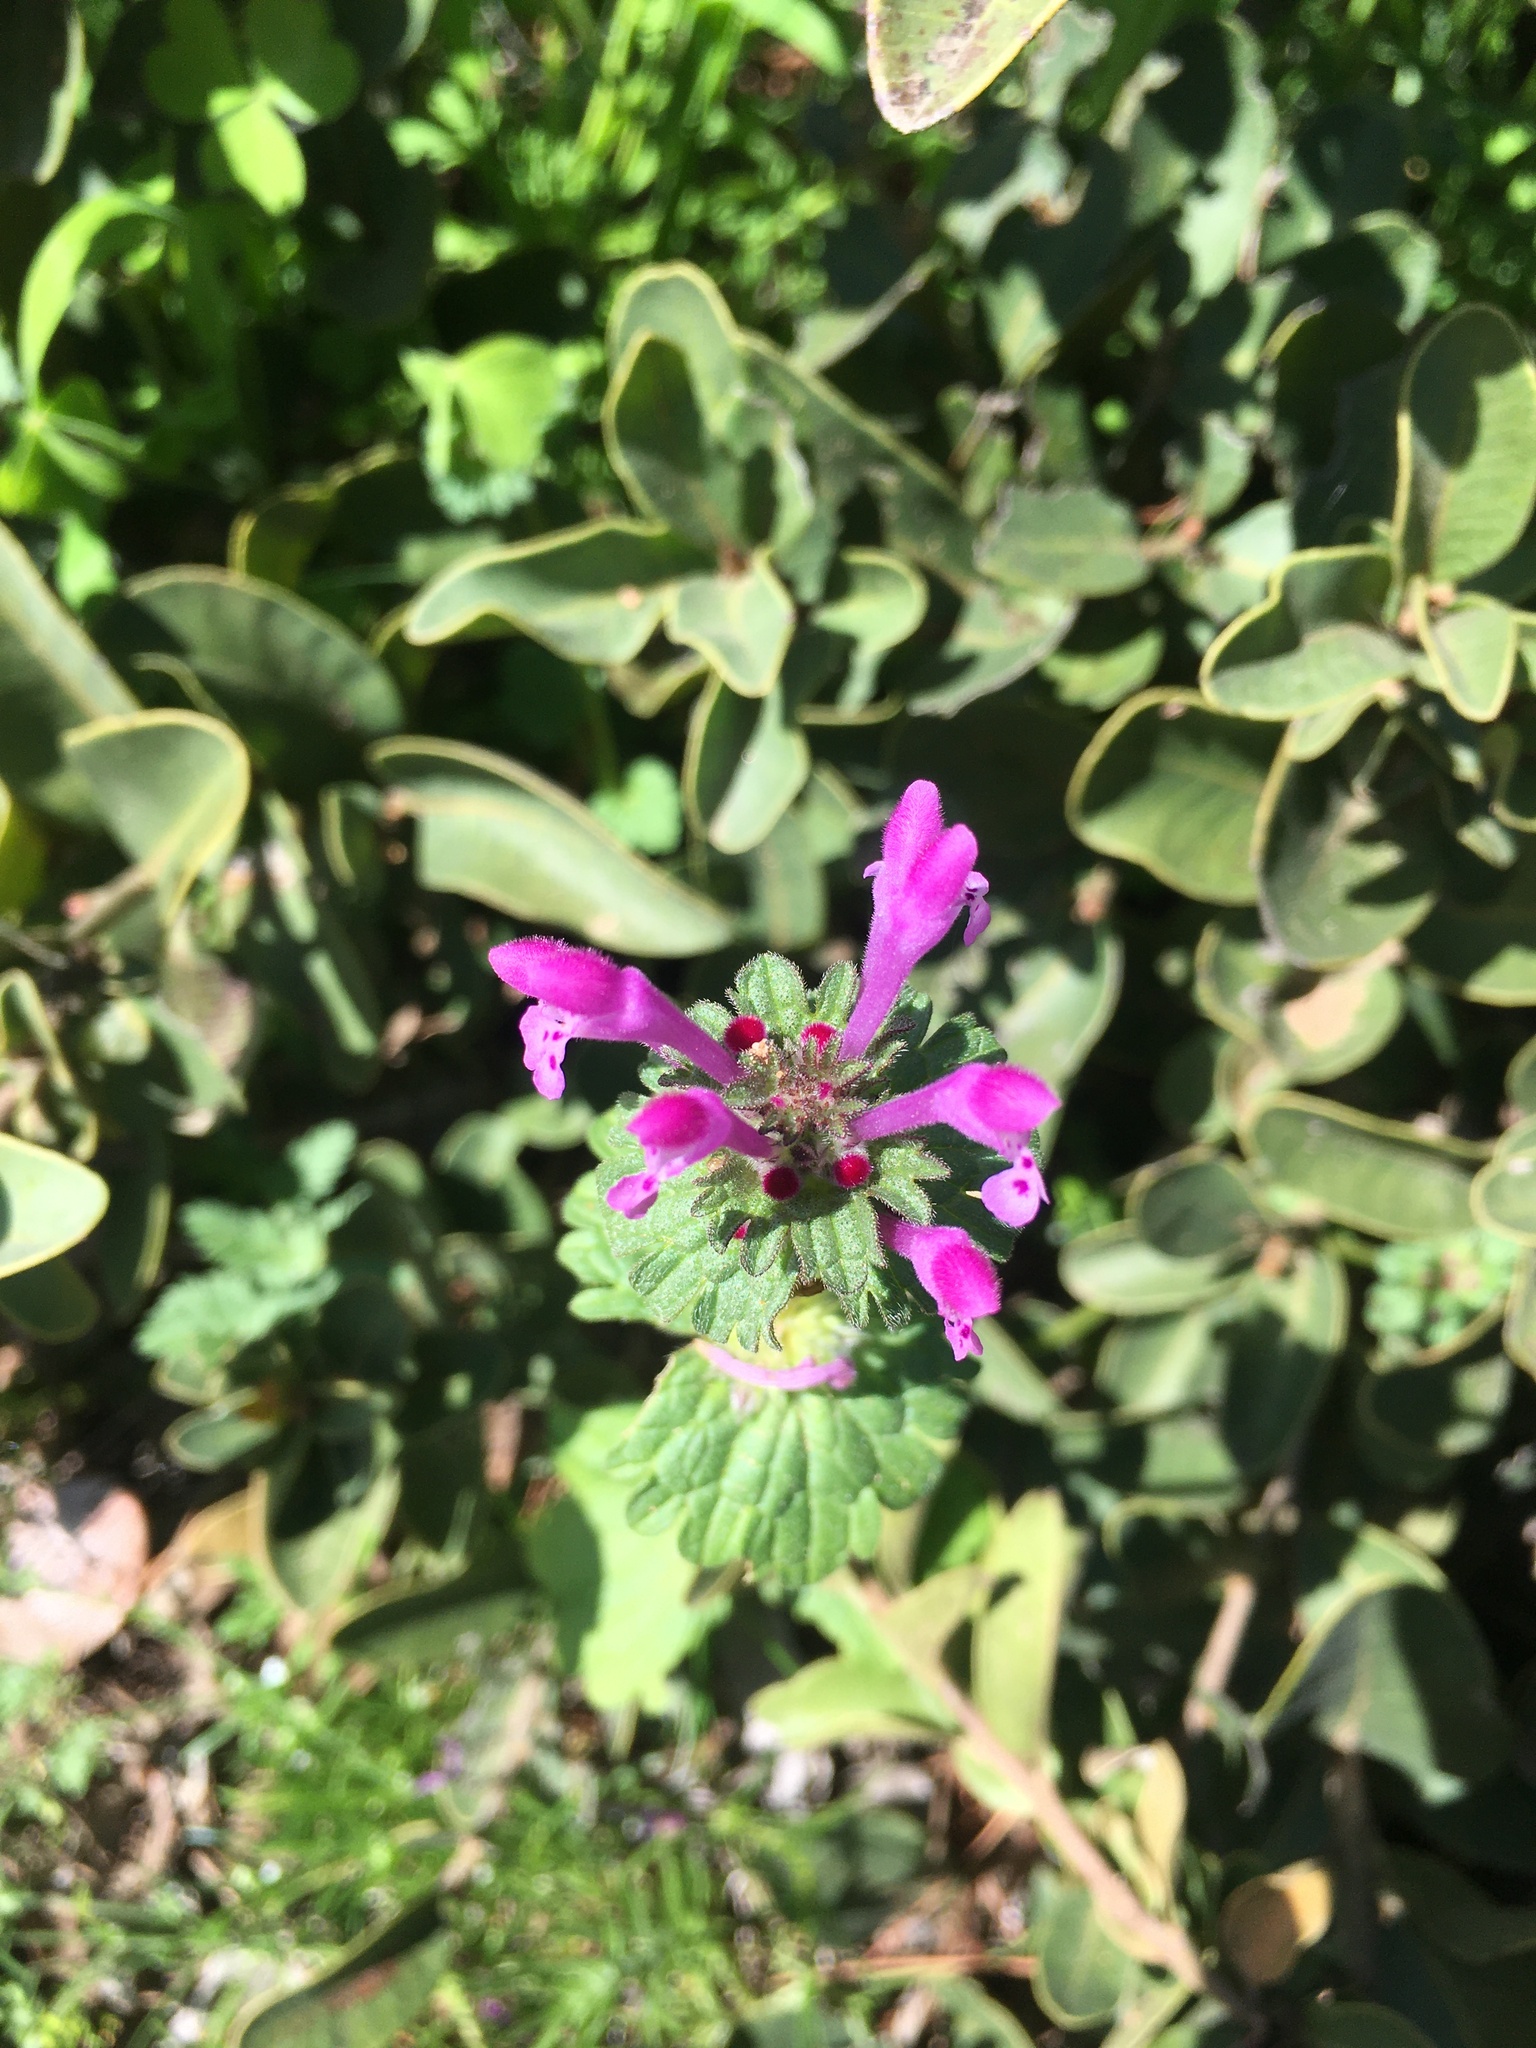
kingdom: Plantae
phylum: Tracheophyta
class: Magnoliopsida
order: Lamiales
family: Lamiaceae
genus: Lamium
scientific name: Lamium amplexicaule
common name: Henbit dead-nettle
